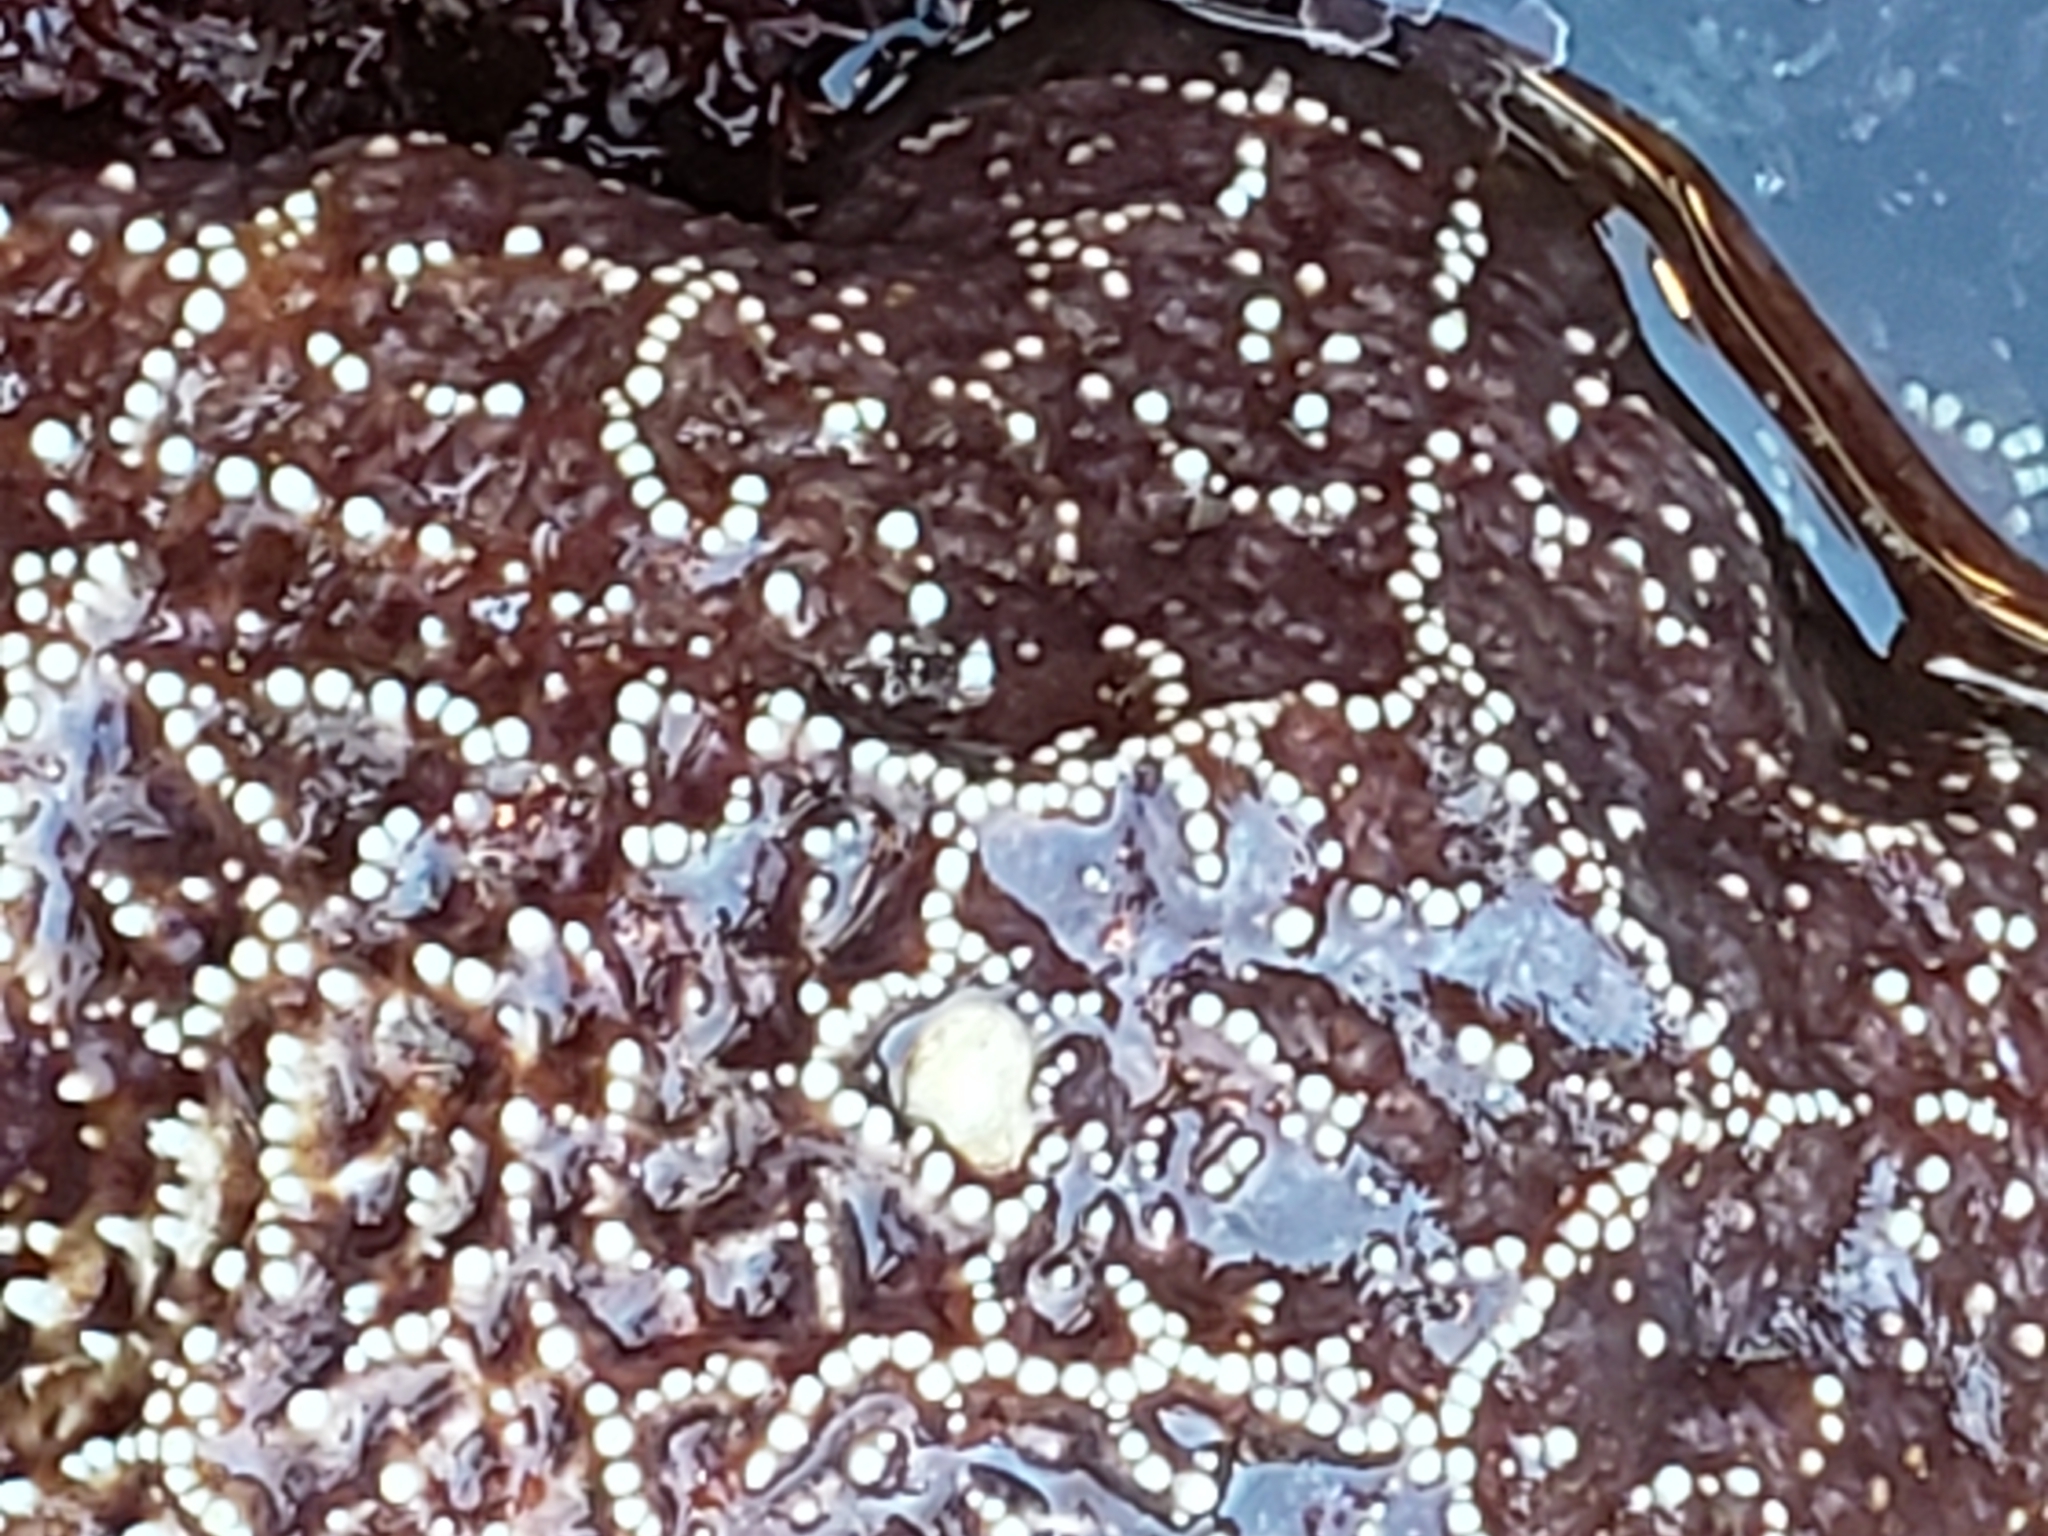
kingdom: Animalia
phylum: Echinodermata
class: Asteroidea
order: Forcipulatida
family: Asteriidae
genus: Pisaster
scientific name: Pisaster ochraceus
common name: Ochre stars
